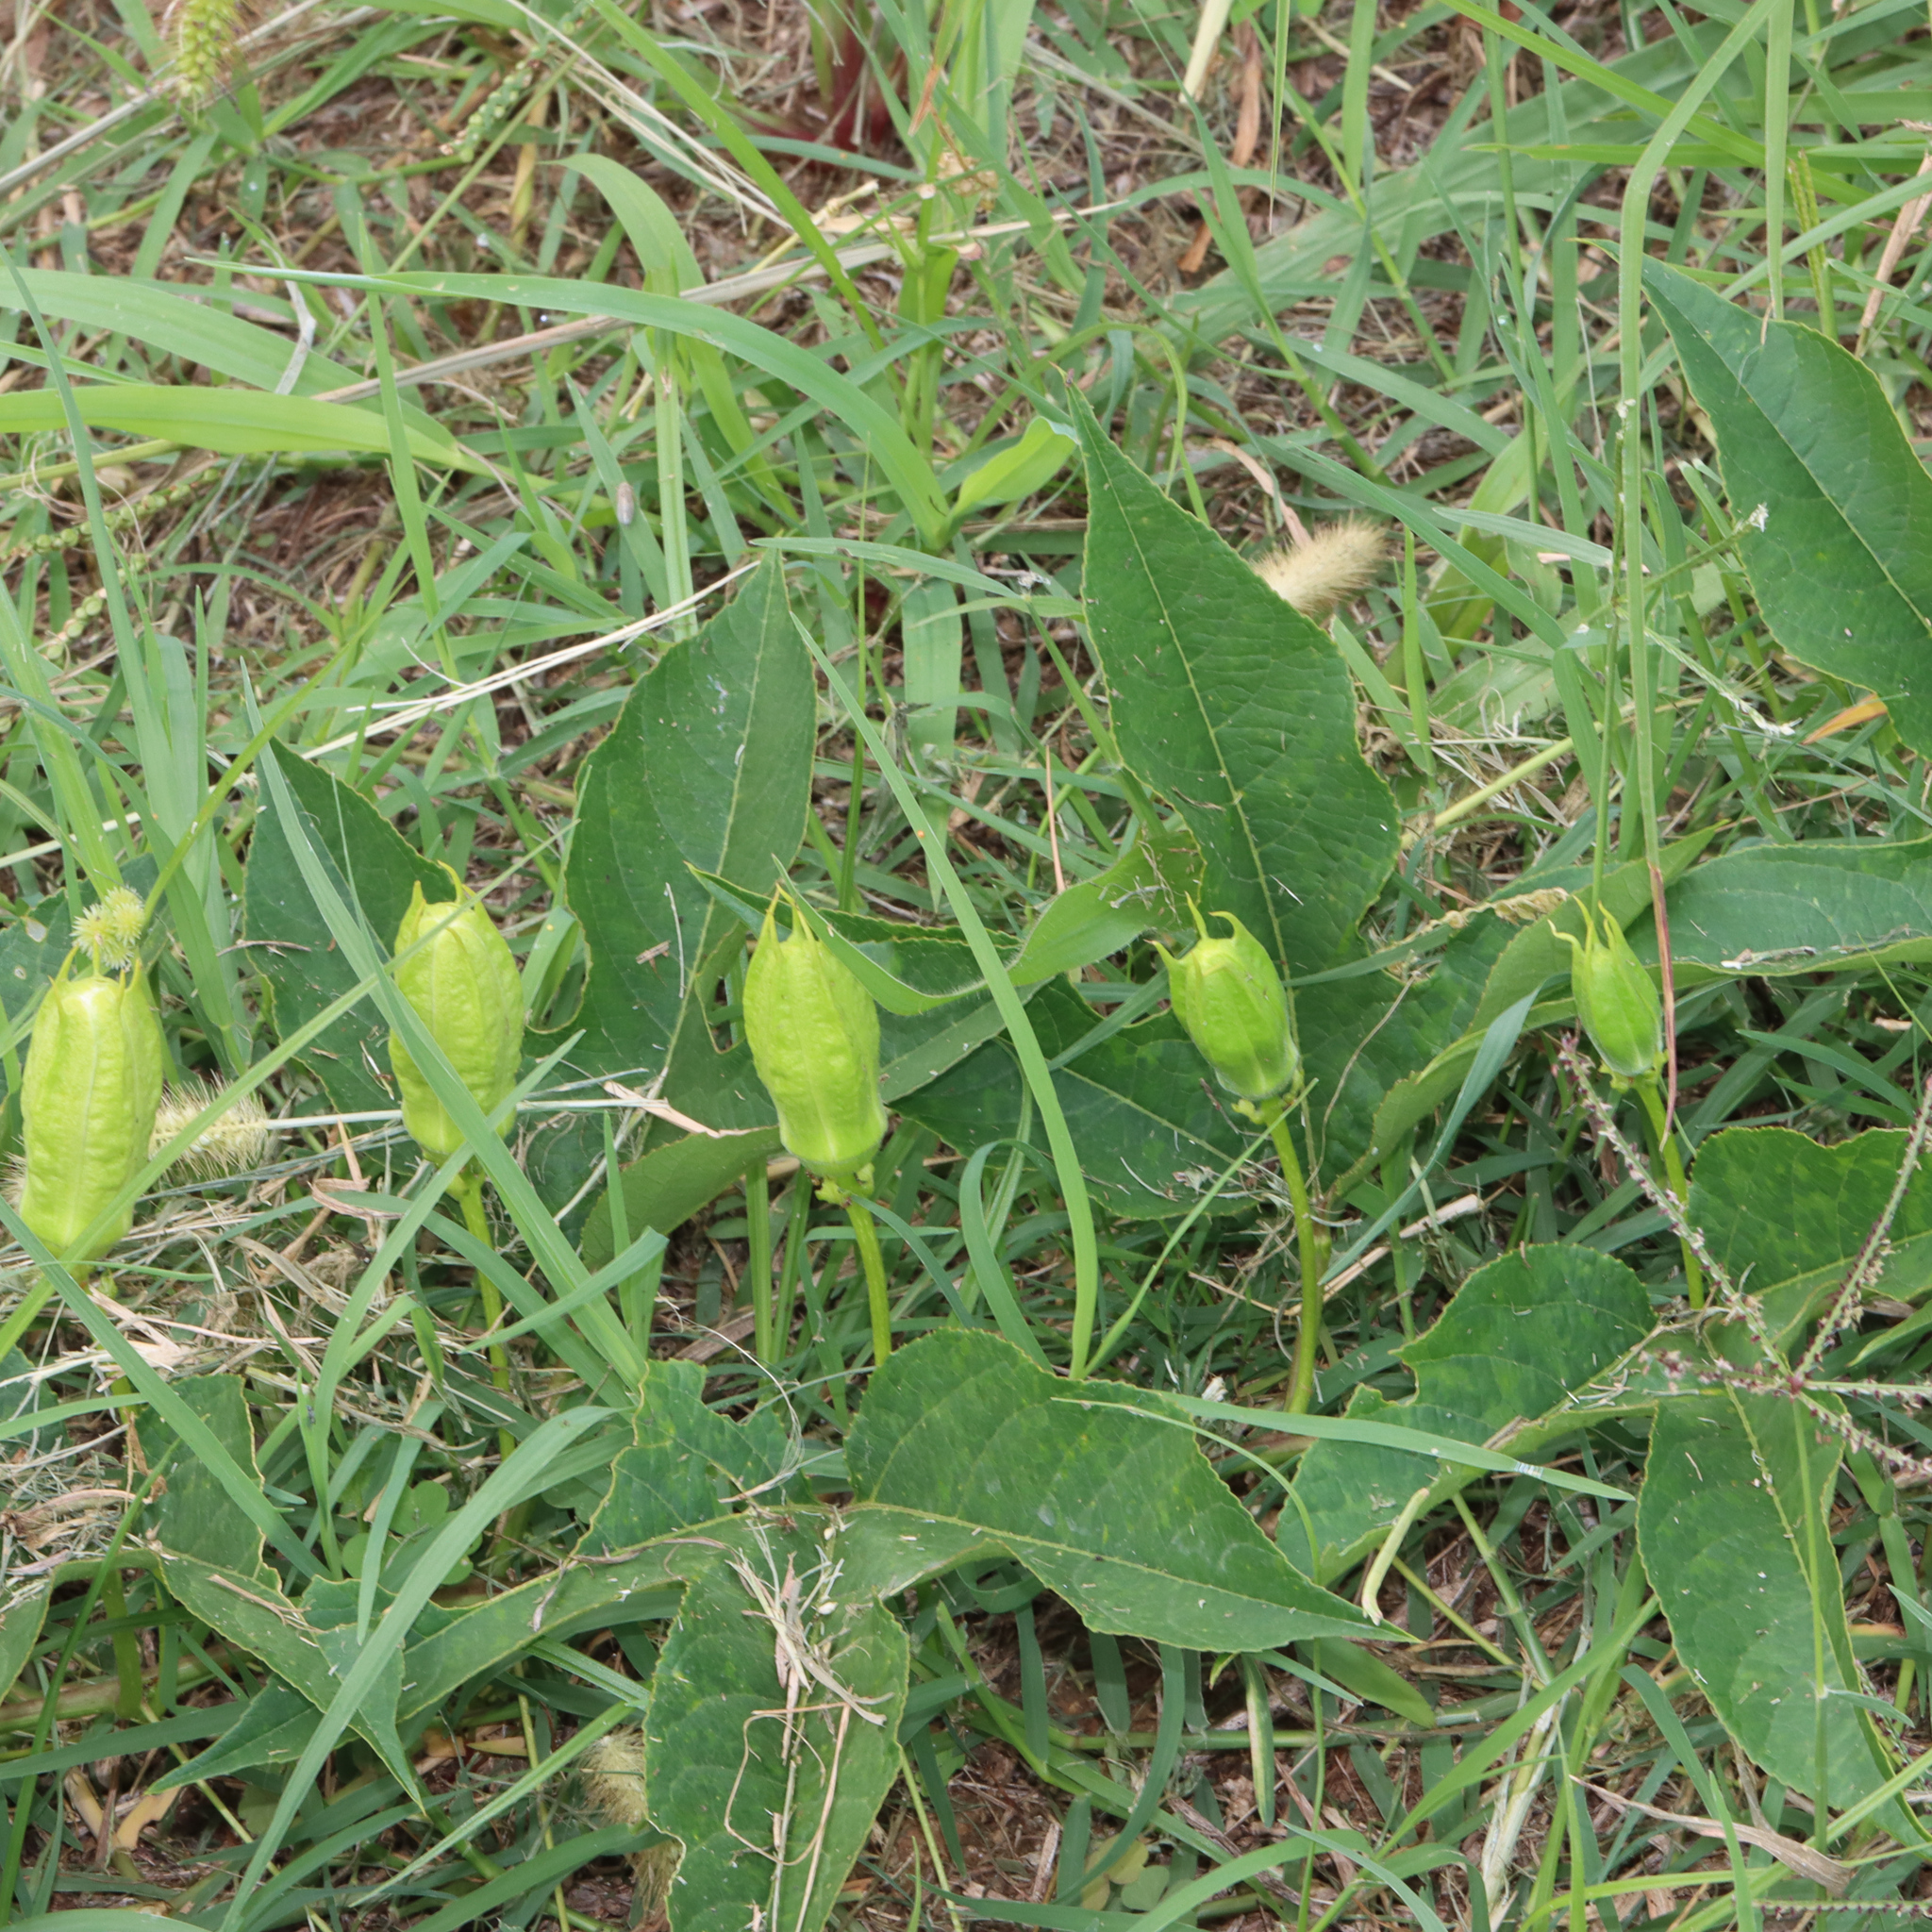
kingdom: Plantae
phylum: Tracheophyta
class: Magnoliopsida
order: Malpighiales
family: Passifloraceae
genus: Passiflora
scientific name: Passiflora incarnata
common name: Apricot-vine
